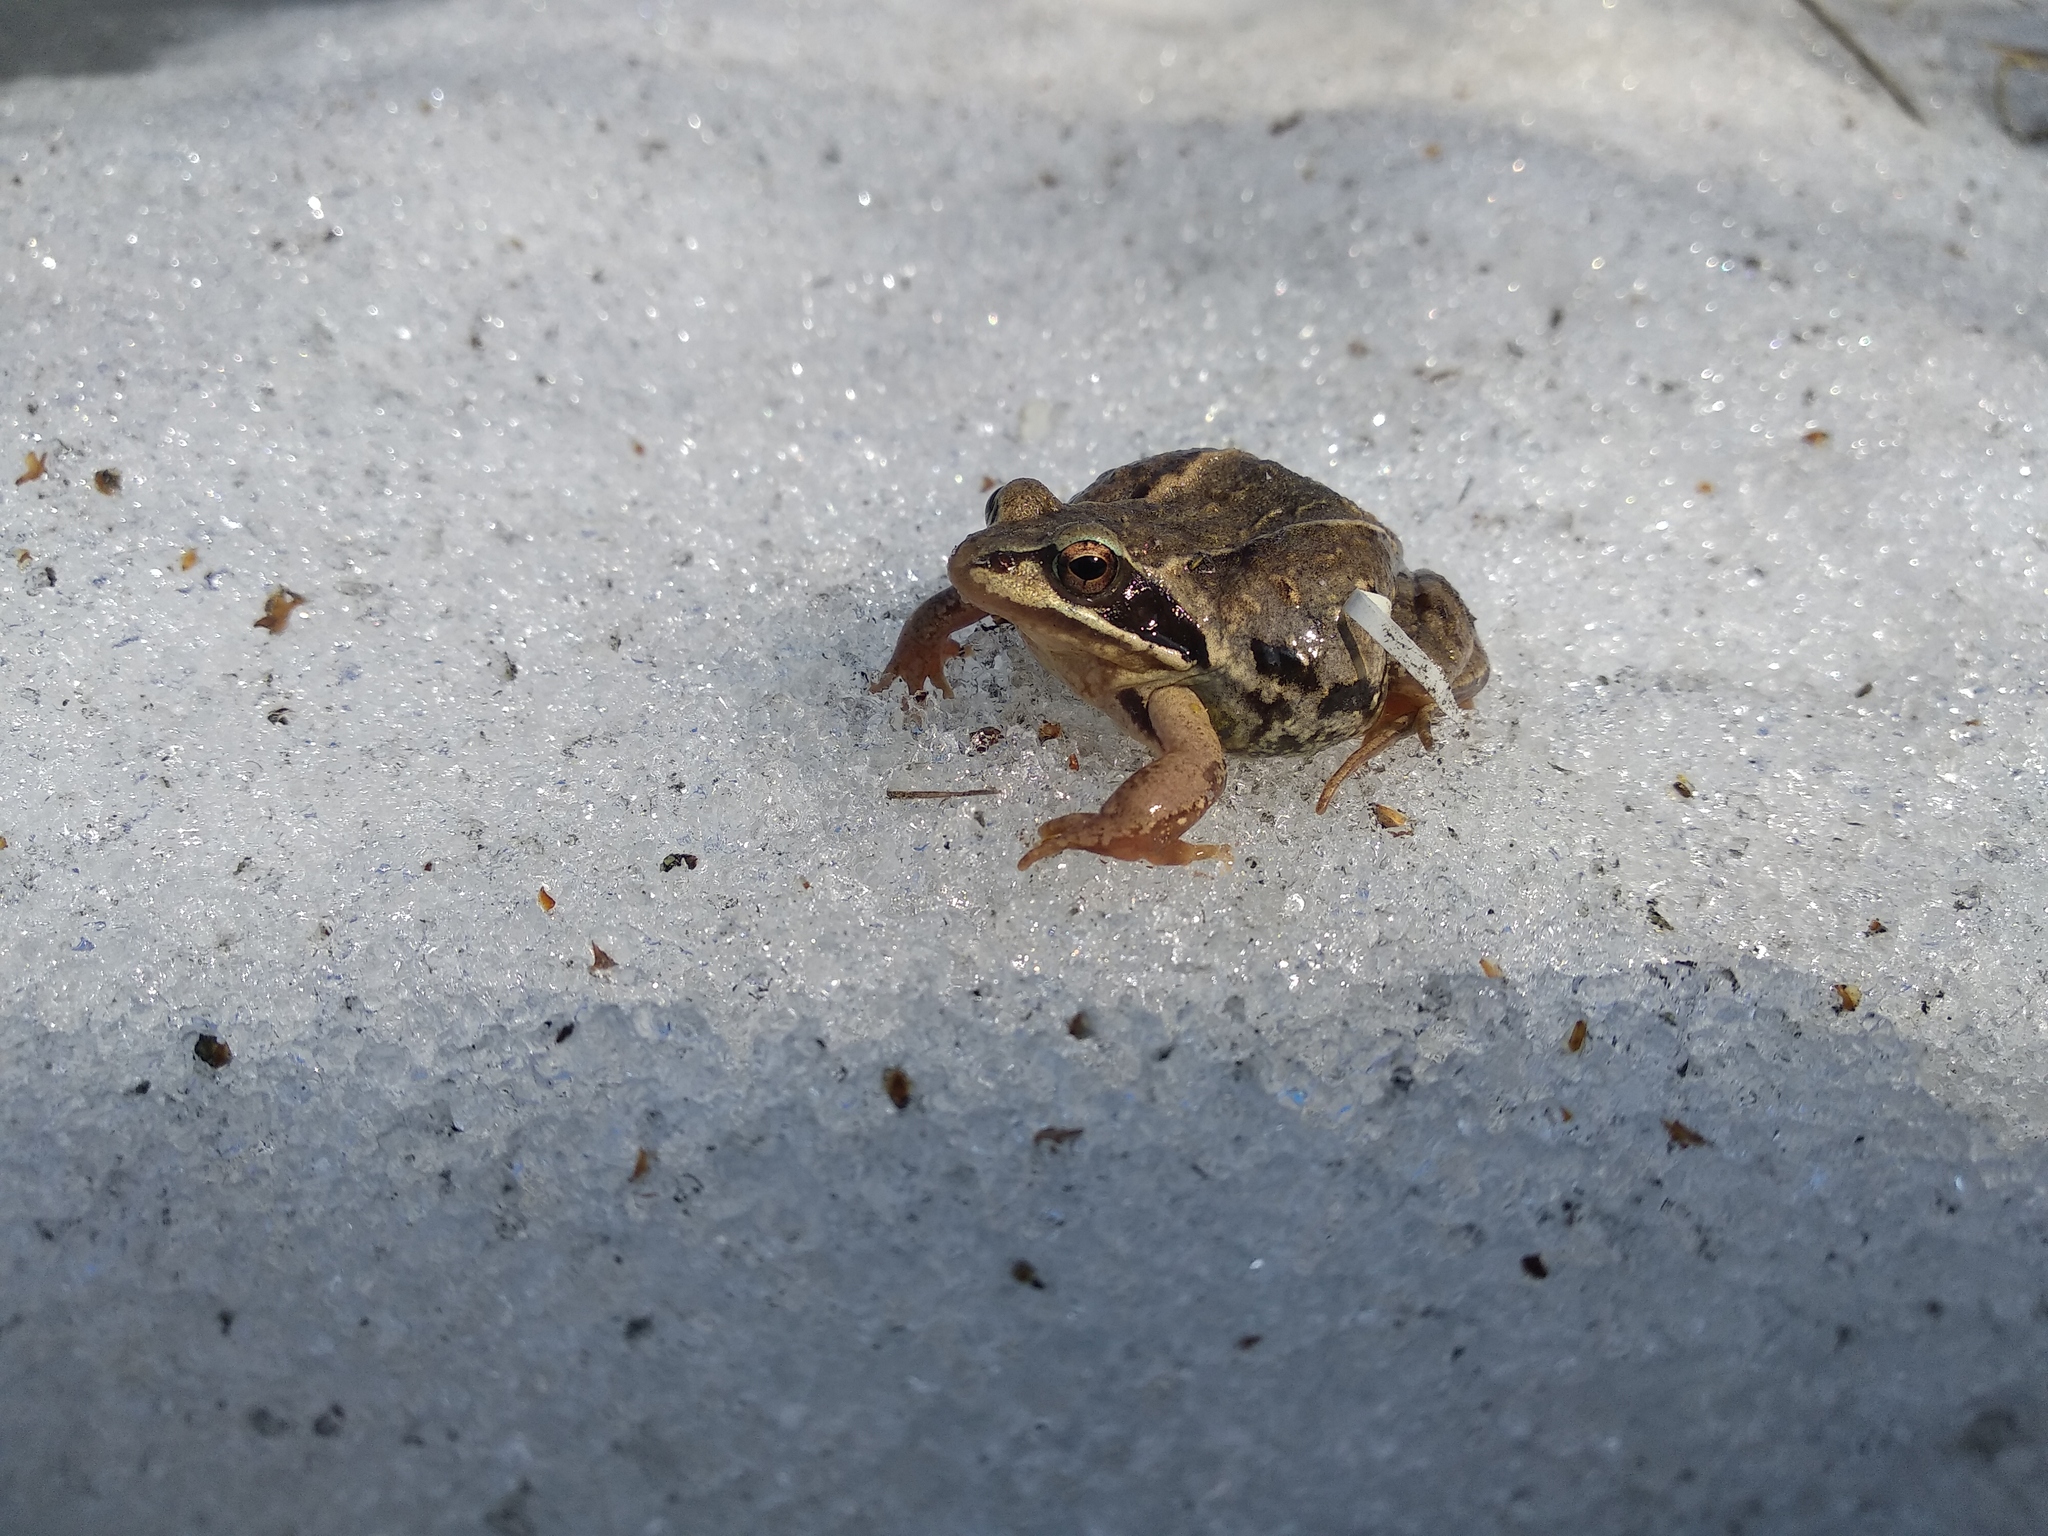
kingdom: Animalia
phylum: Chordata
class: Amphibia
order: Anura
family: Ranidae
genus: Rana
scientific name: Rana arvalis
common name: Moor frog
